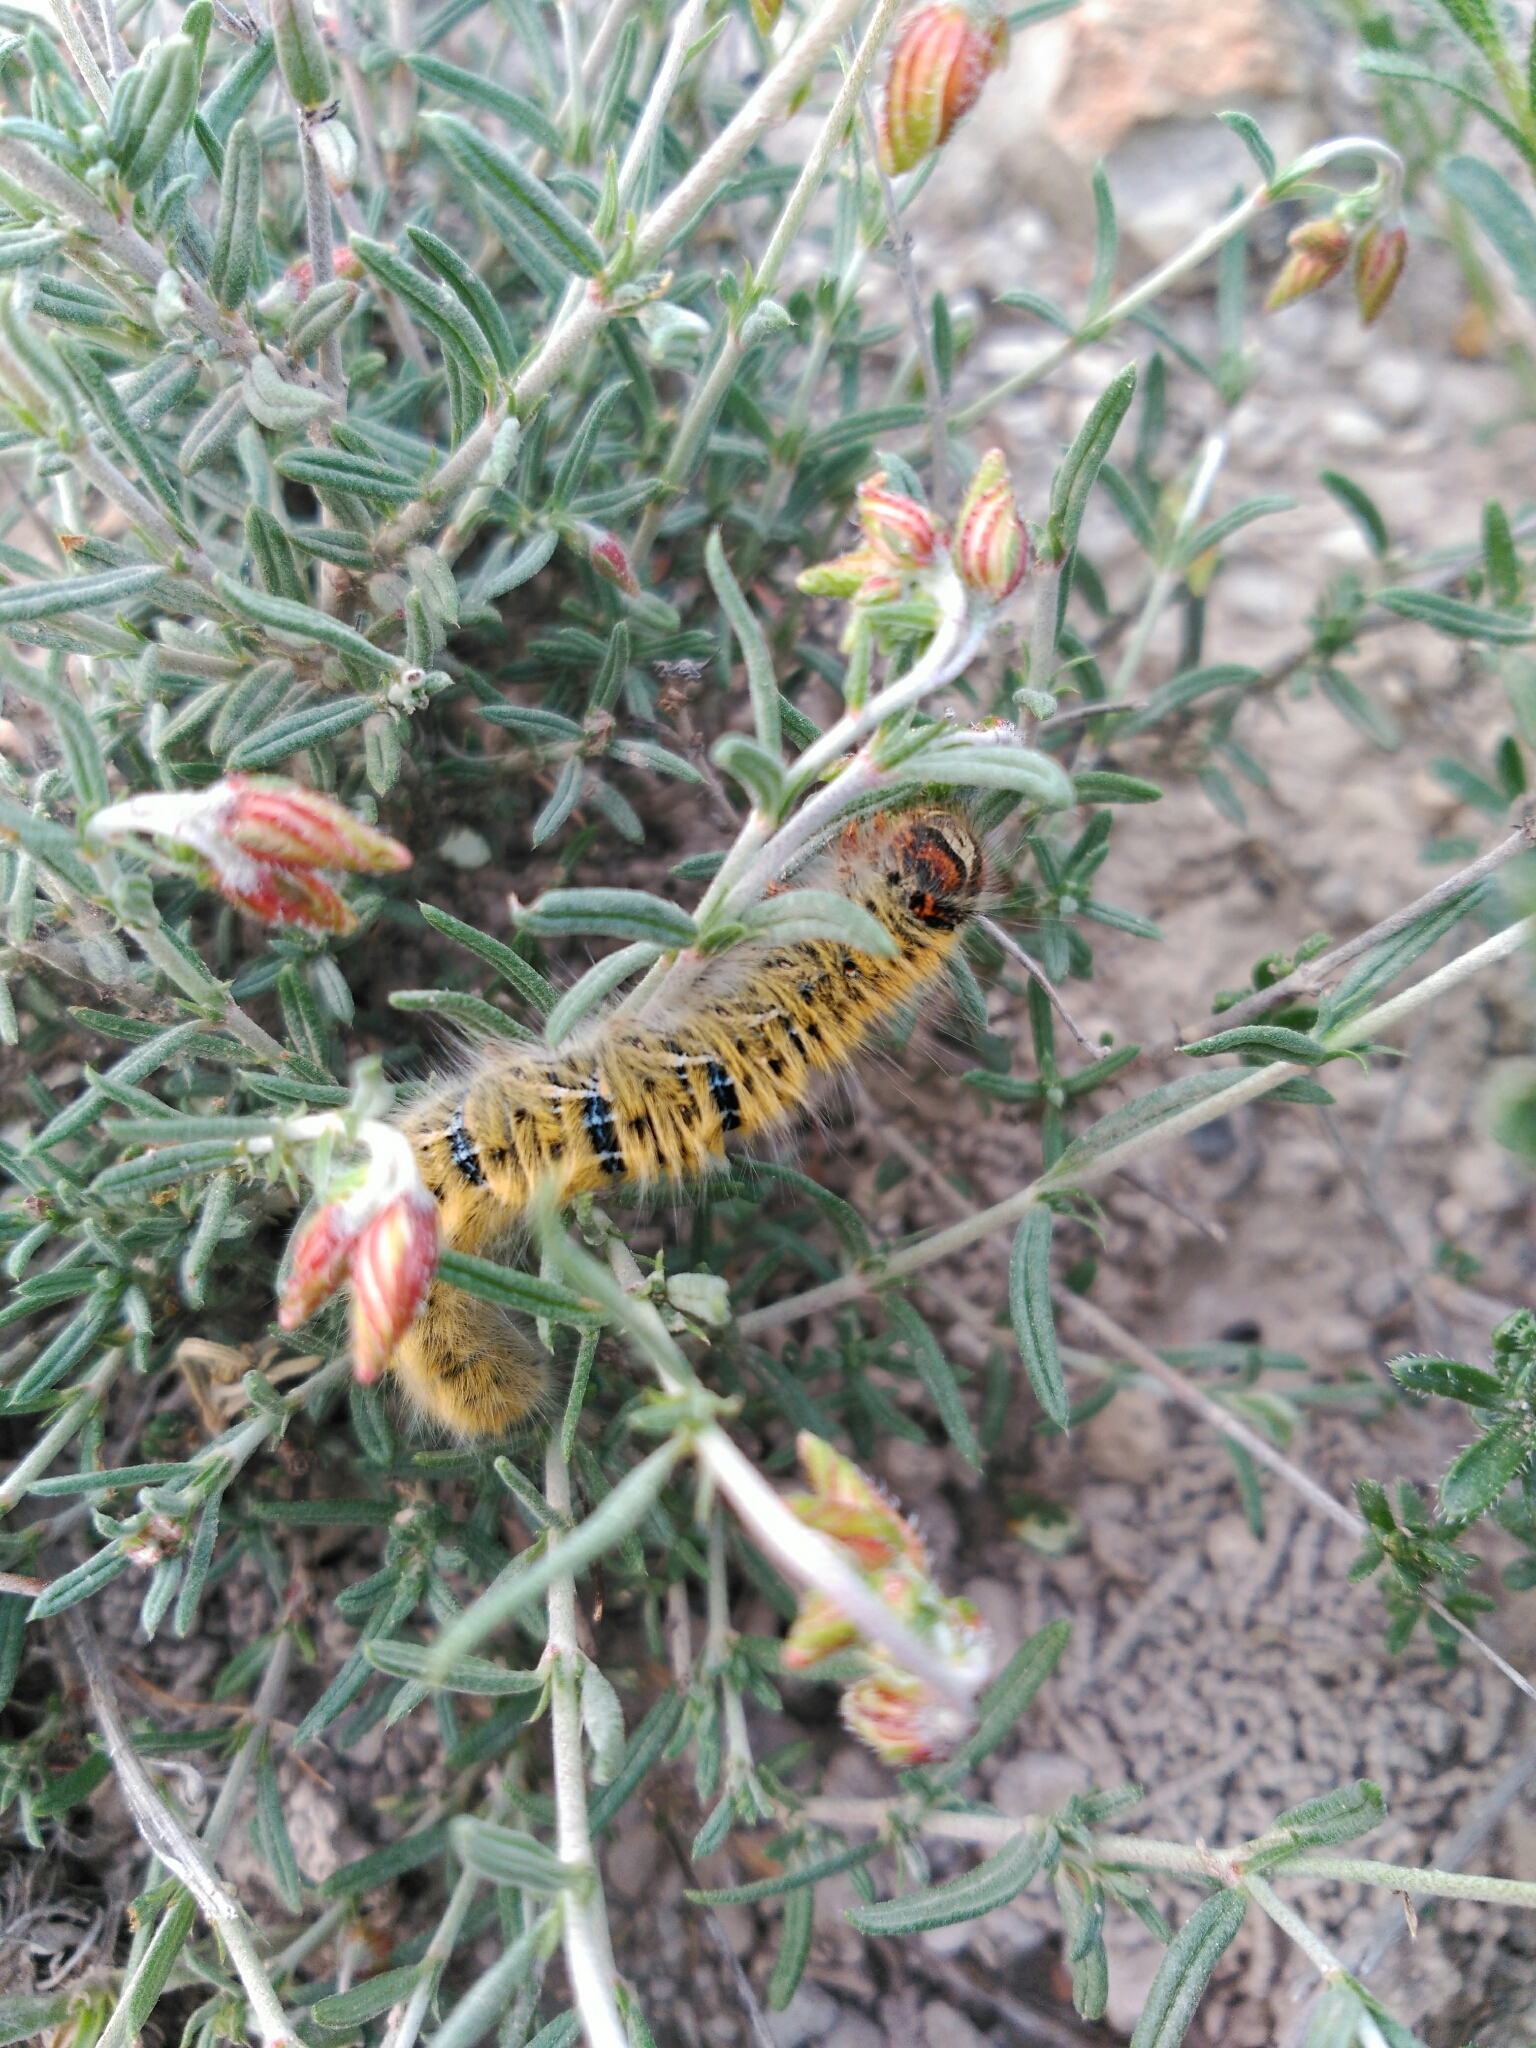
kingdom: Animalia
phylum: Arthropoda
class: Insecta
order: Lepidoptera
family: Lasiocampidae
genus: Lasiocampa
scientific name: Lasiocampa trifolii
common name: Grass eggar
